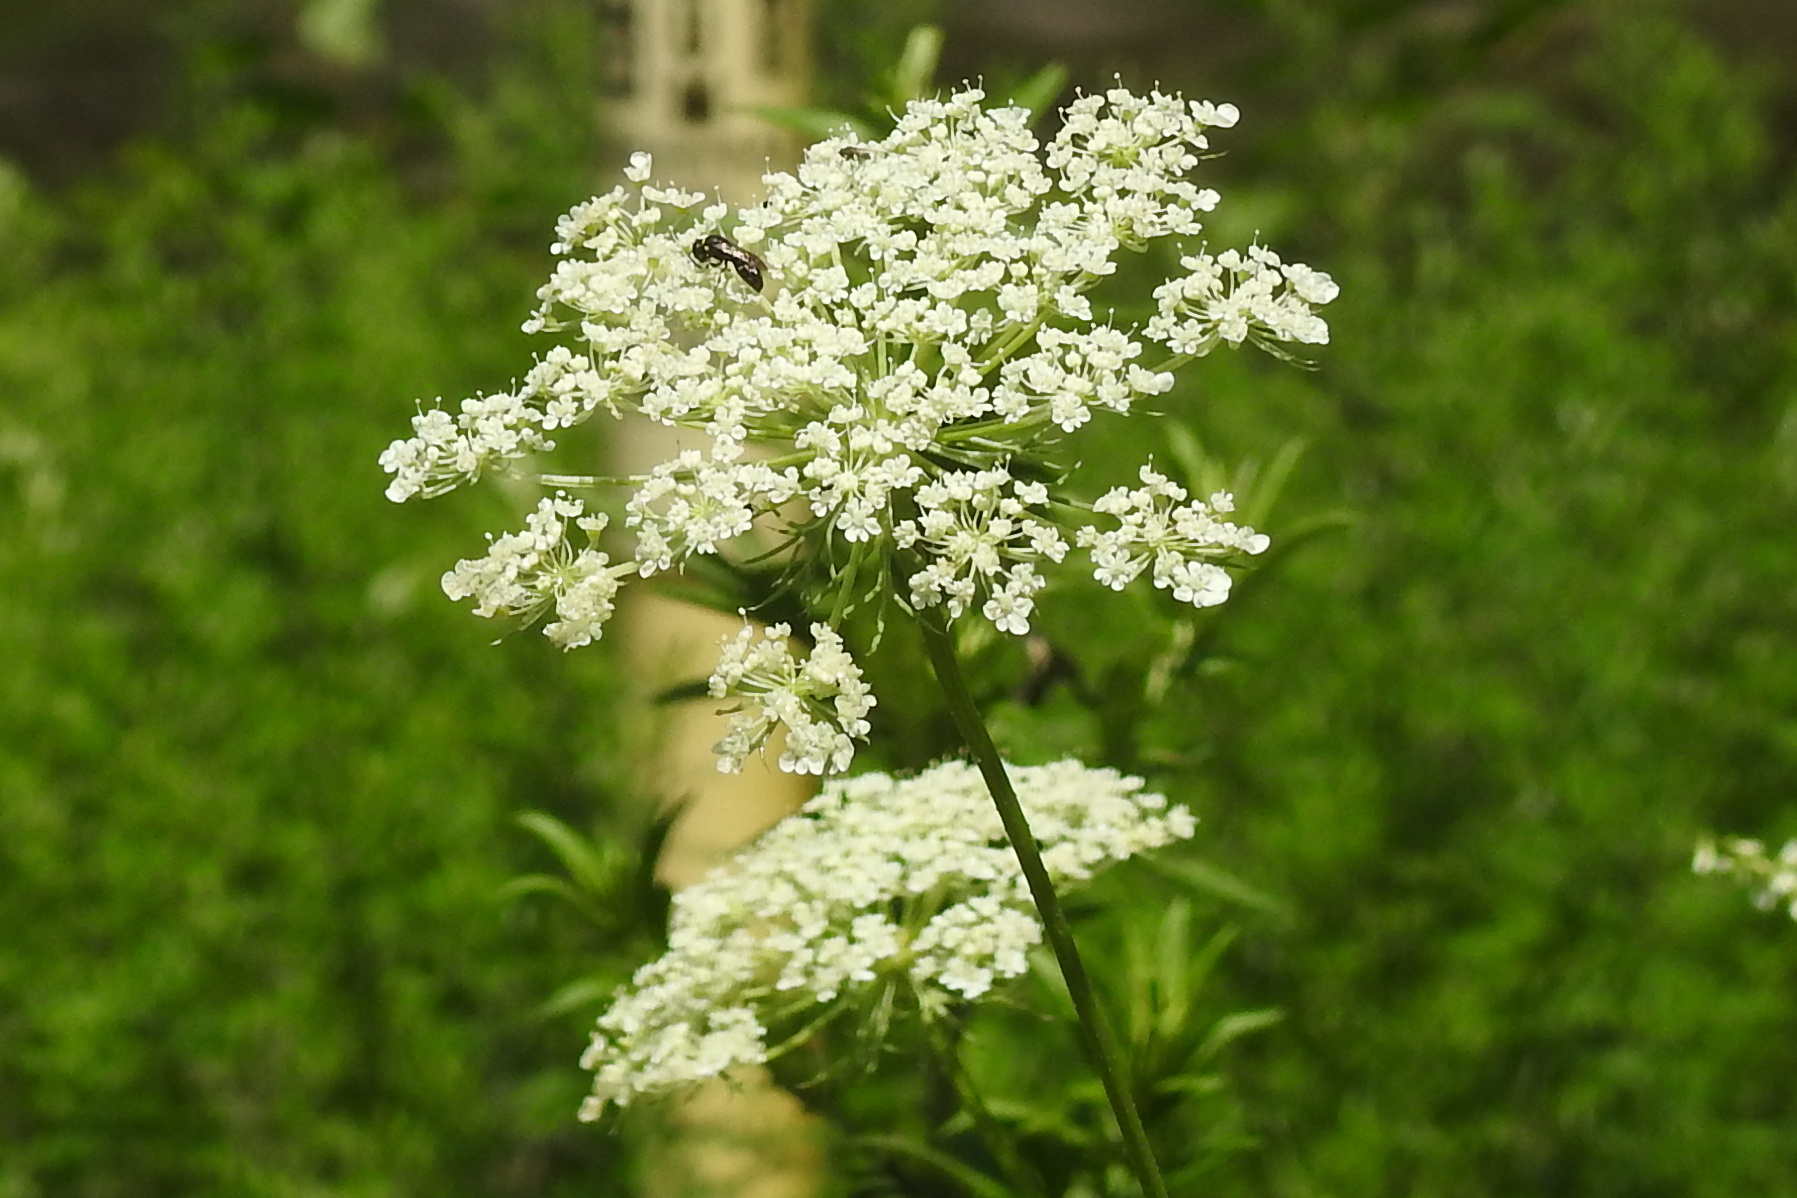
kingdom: Plantae
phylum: Tracheophyta
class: Magnoliopsida
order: Apiales
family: Apiaceae
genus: Daucus
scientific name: Daucus carota
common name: Wild carrot
